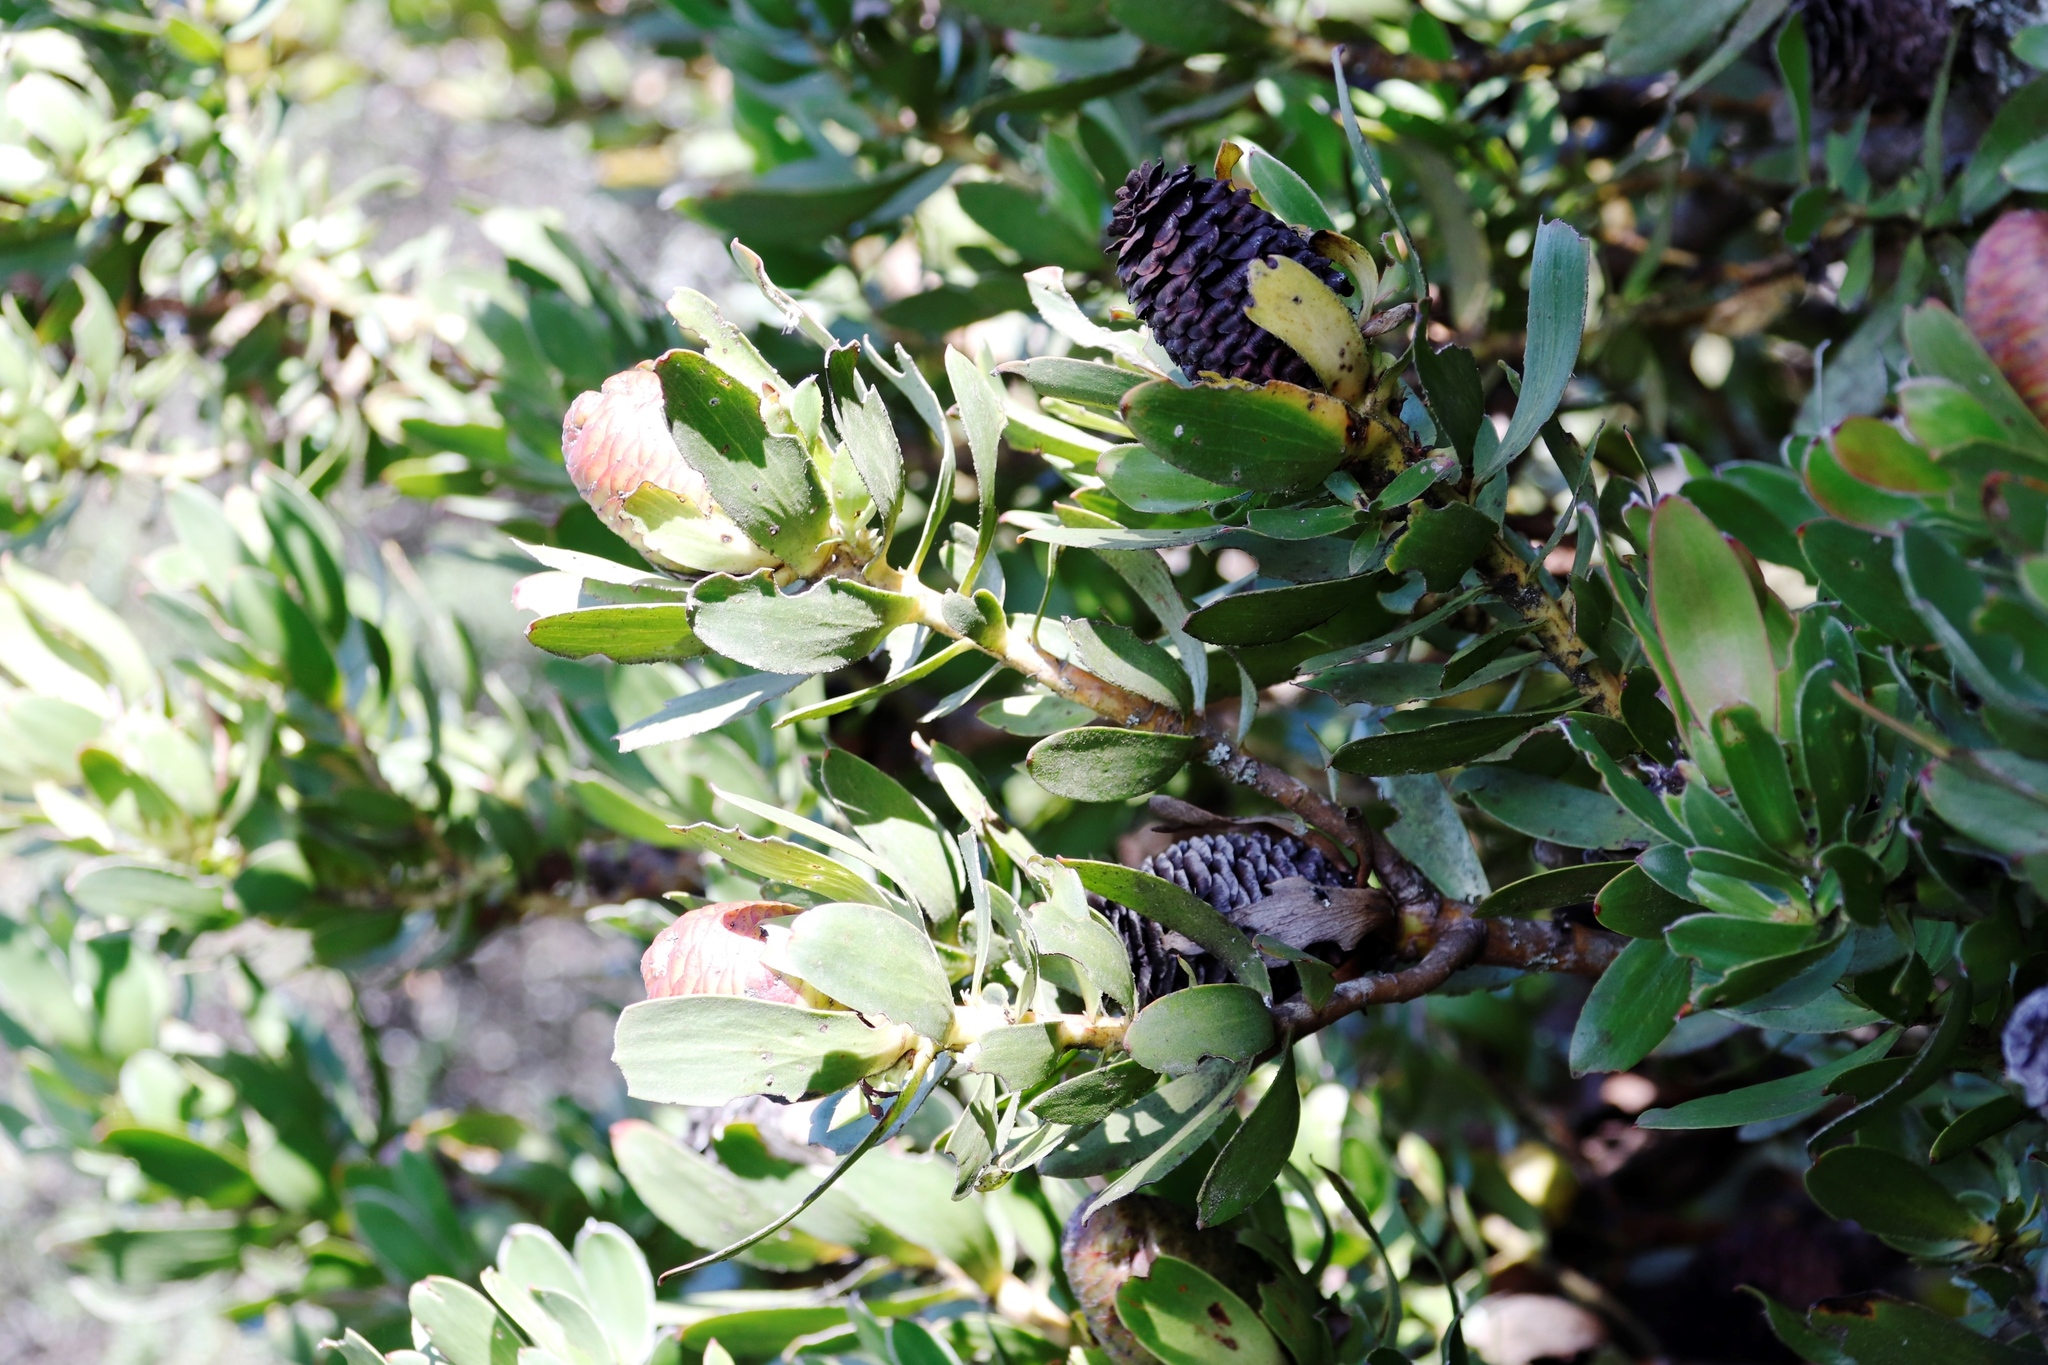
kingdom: Plantae
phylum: Tracheophyta
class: Magnoliopsida
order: Proteales
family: Proteaceae
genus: Leucadendron
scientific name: Leucadendron strobilinum
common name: Mountain rose
